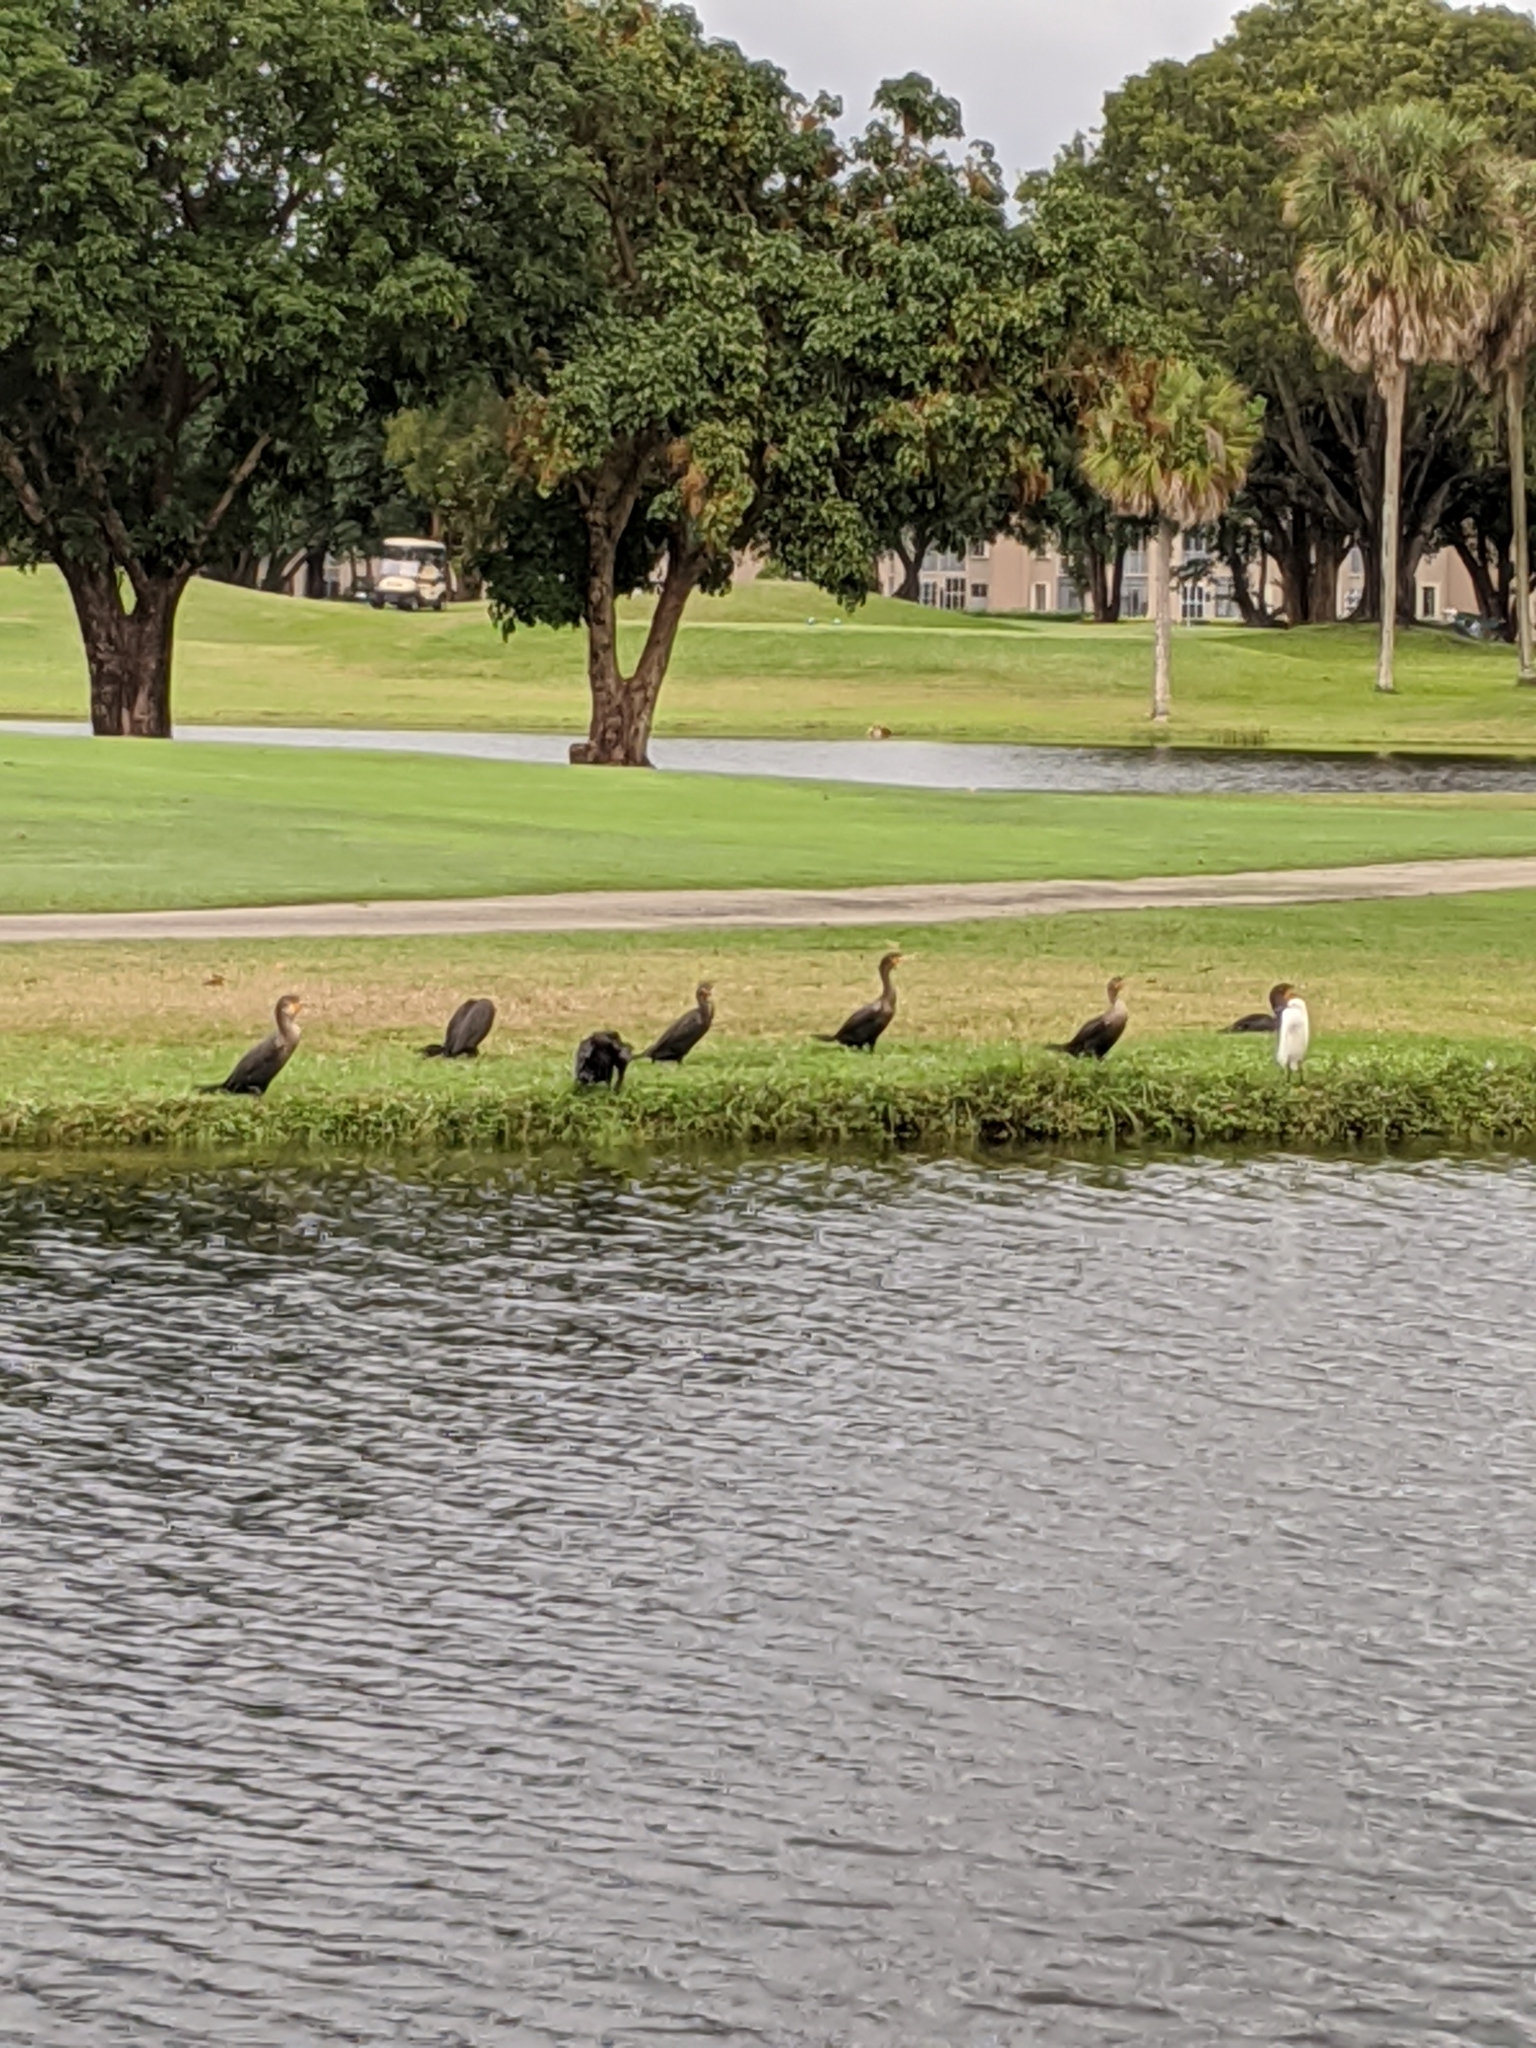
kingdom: Animalia
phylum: Chordata
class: Aves
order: Suliformes
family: Phalacrocoracidae
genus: Phalacrocorax
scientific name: Phalacrocorax auritus
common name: Double-crested cormorant
